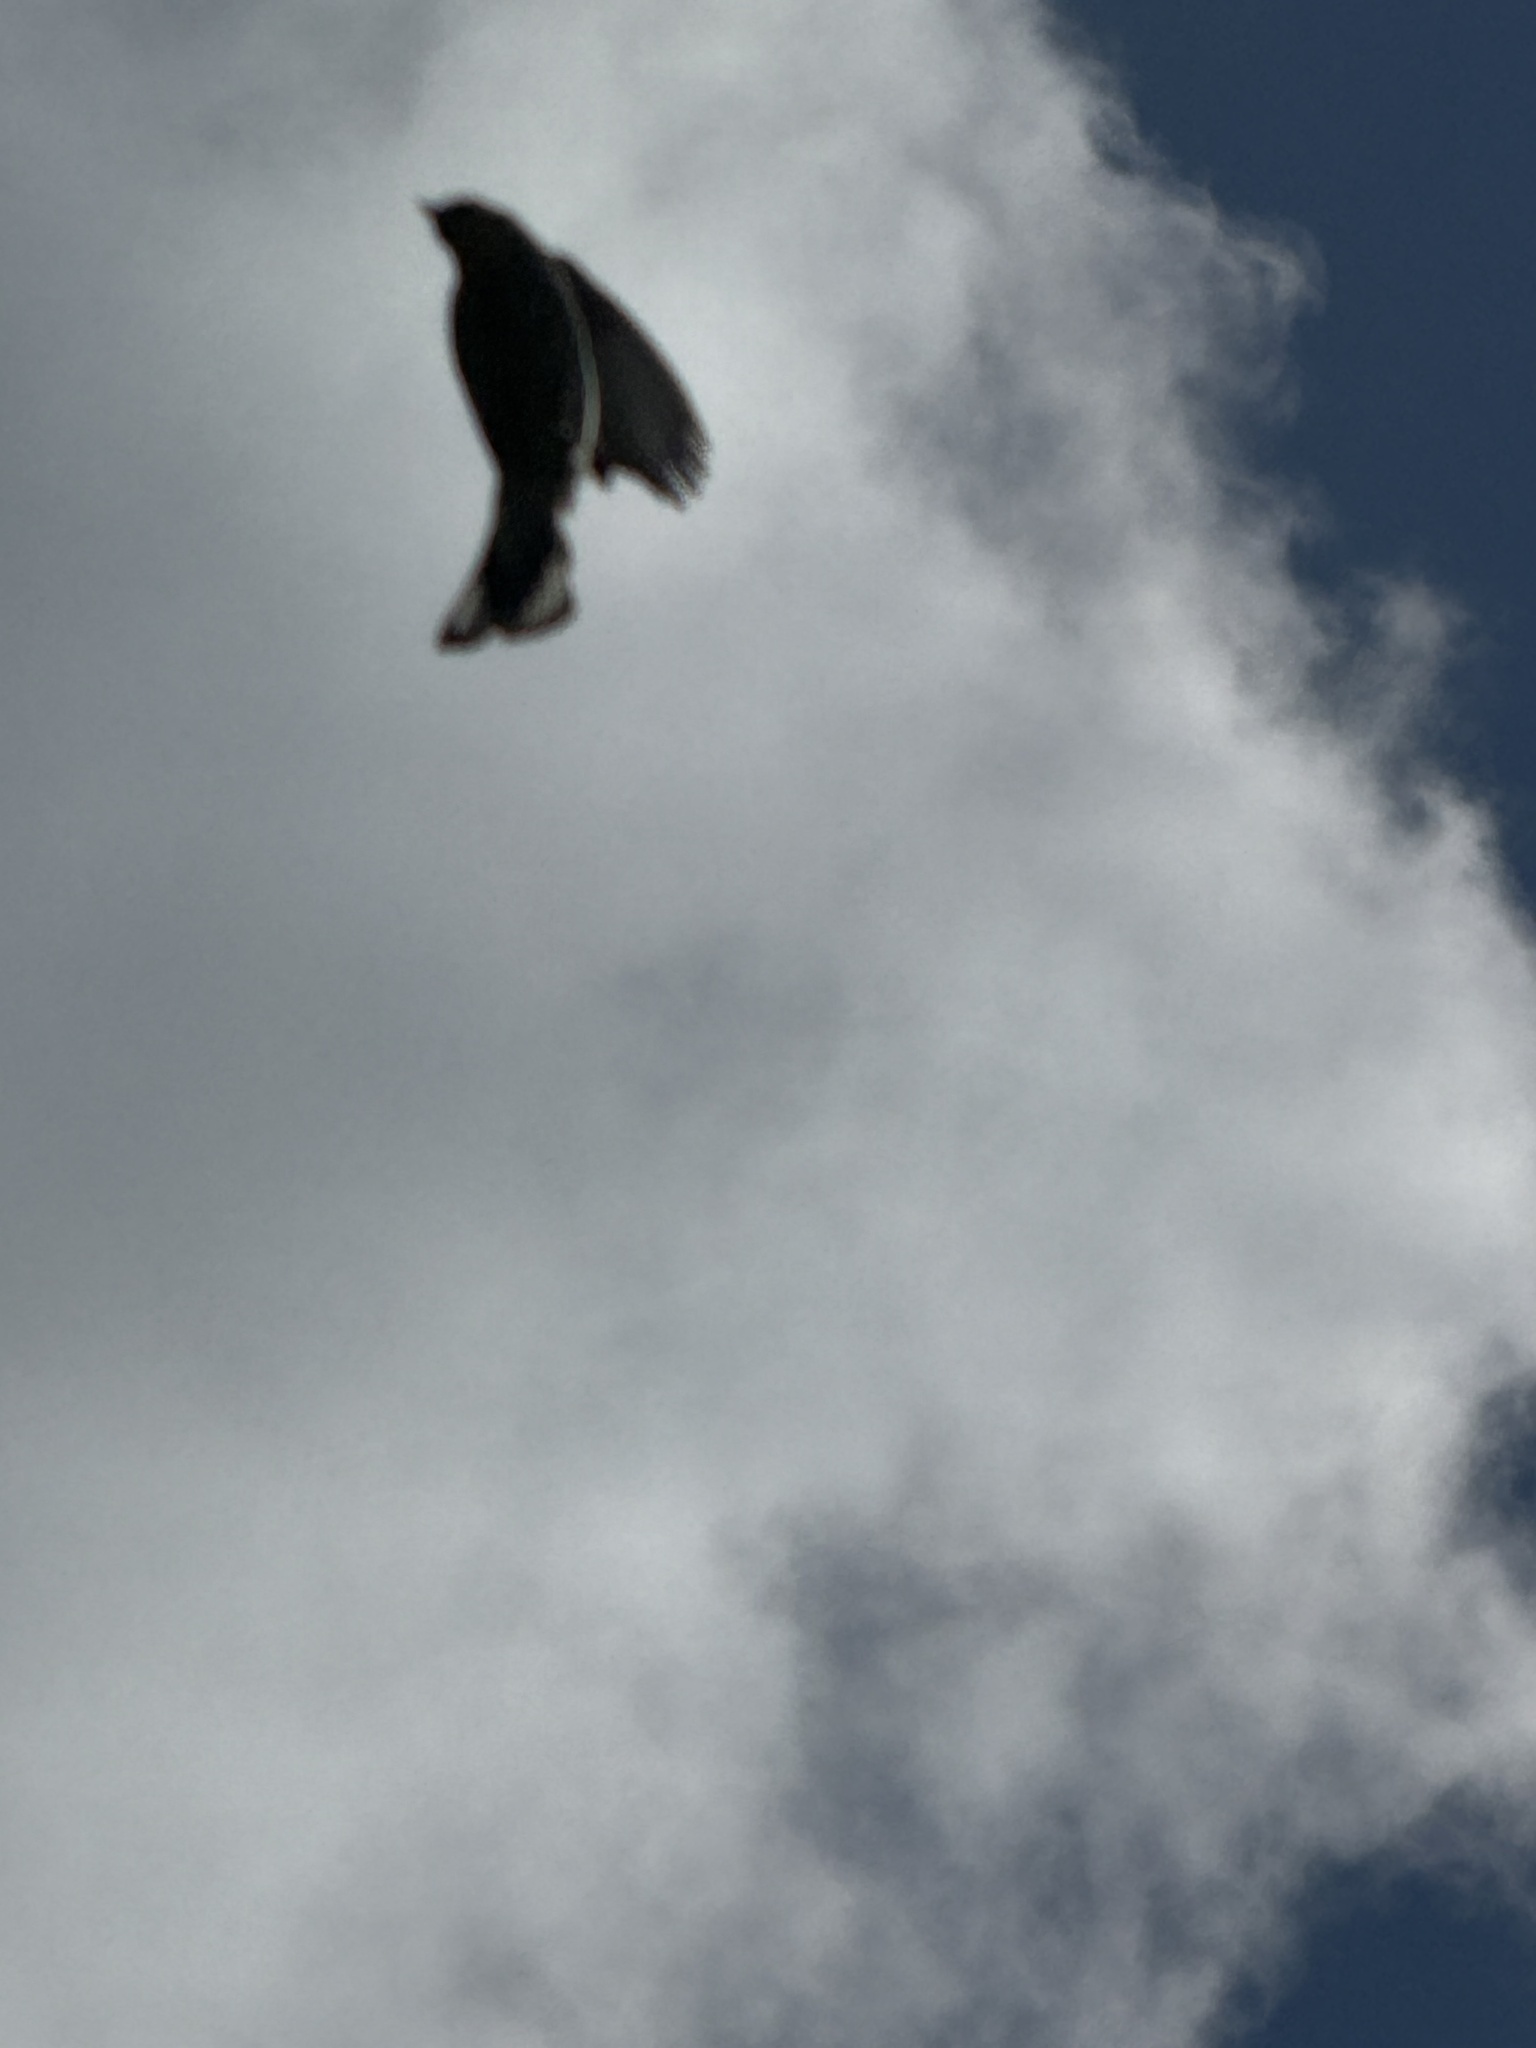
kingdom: Animalia
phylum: Chordata
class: Aves
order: Passeriformes
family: Parulidae
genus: Setophaga
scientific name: Setophaga coronata
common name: Myrtle warbler
